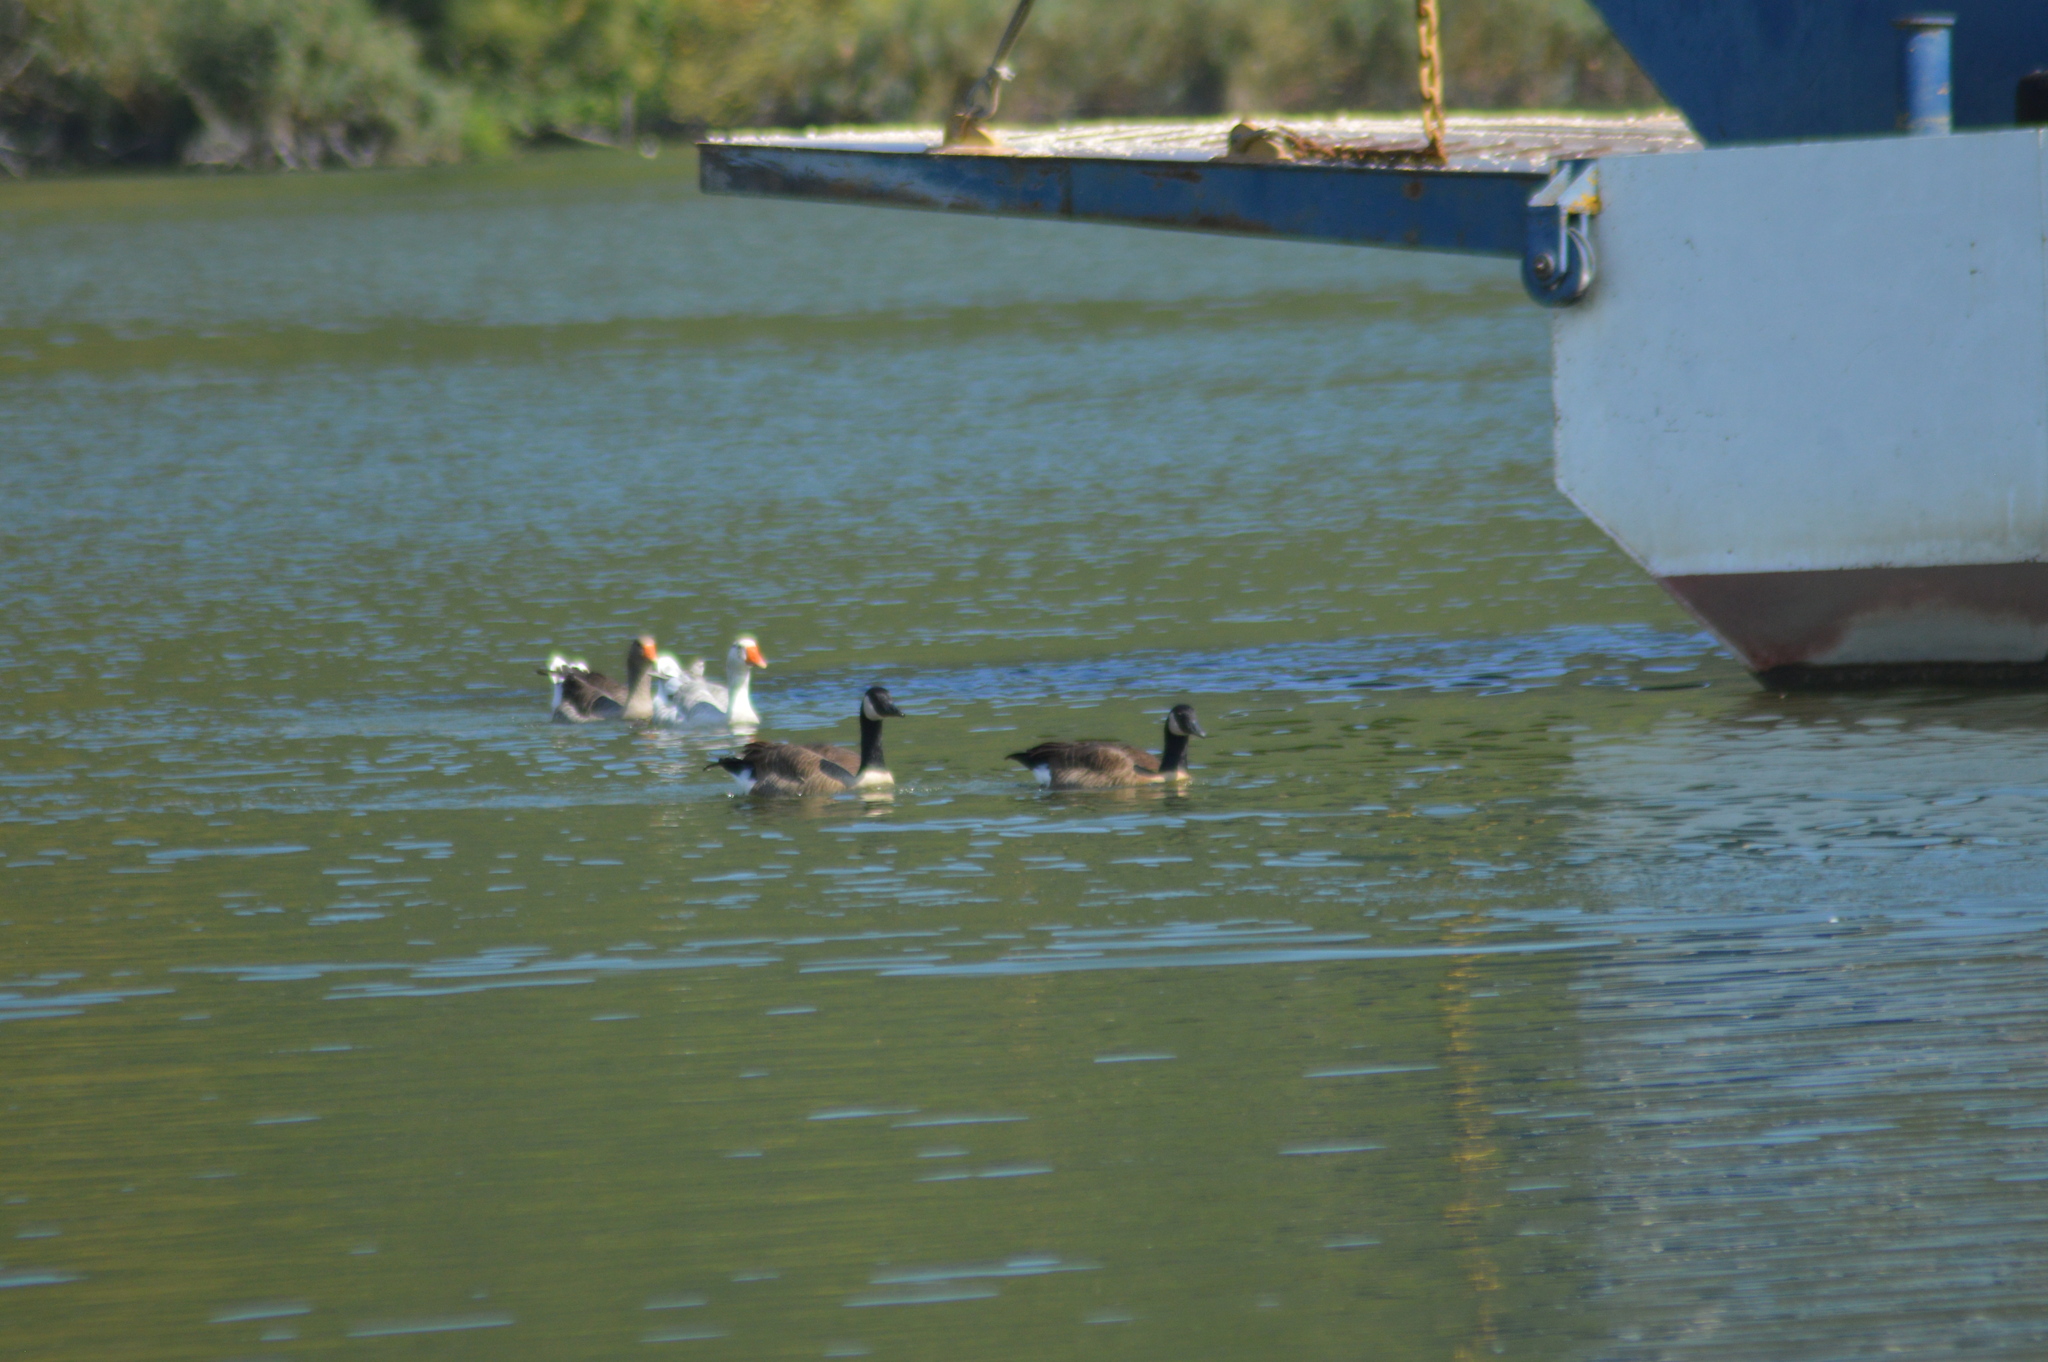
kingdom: Animalia
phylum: Chordata
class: Aves
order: Anseriformes
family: Anatidae
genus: Branta
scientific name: Branta canadensis
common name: Canada goose
